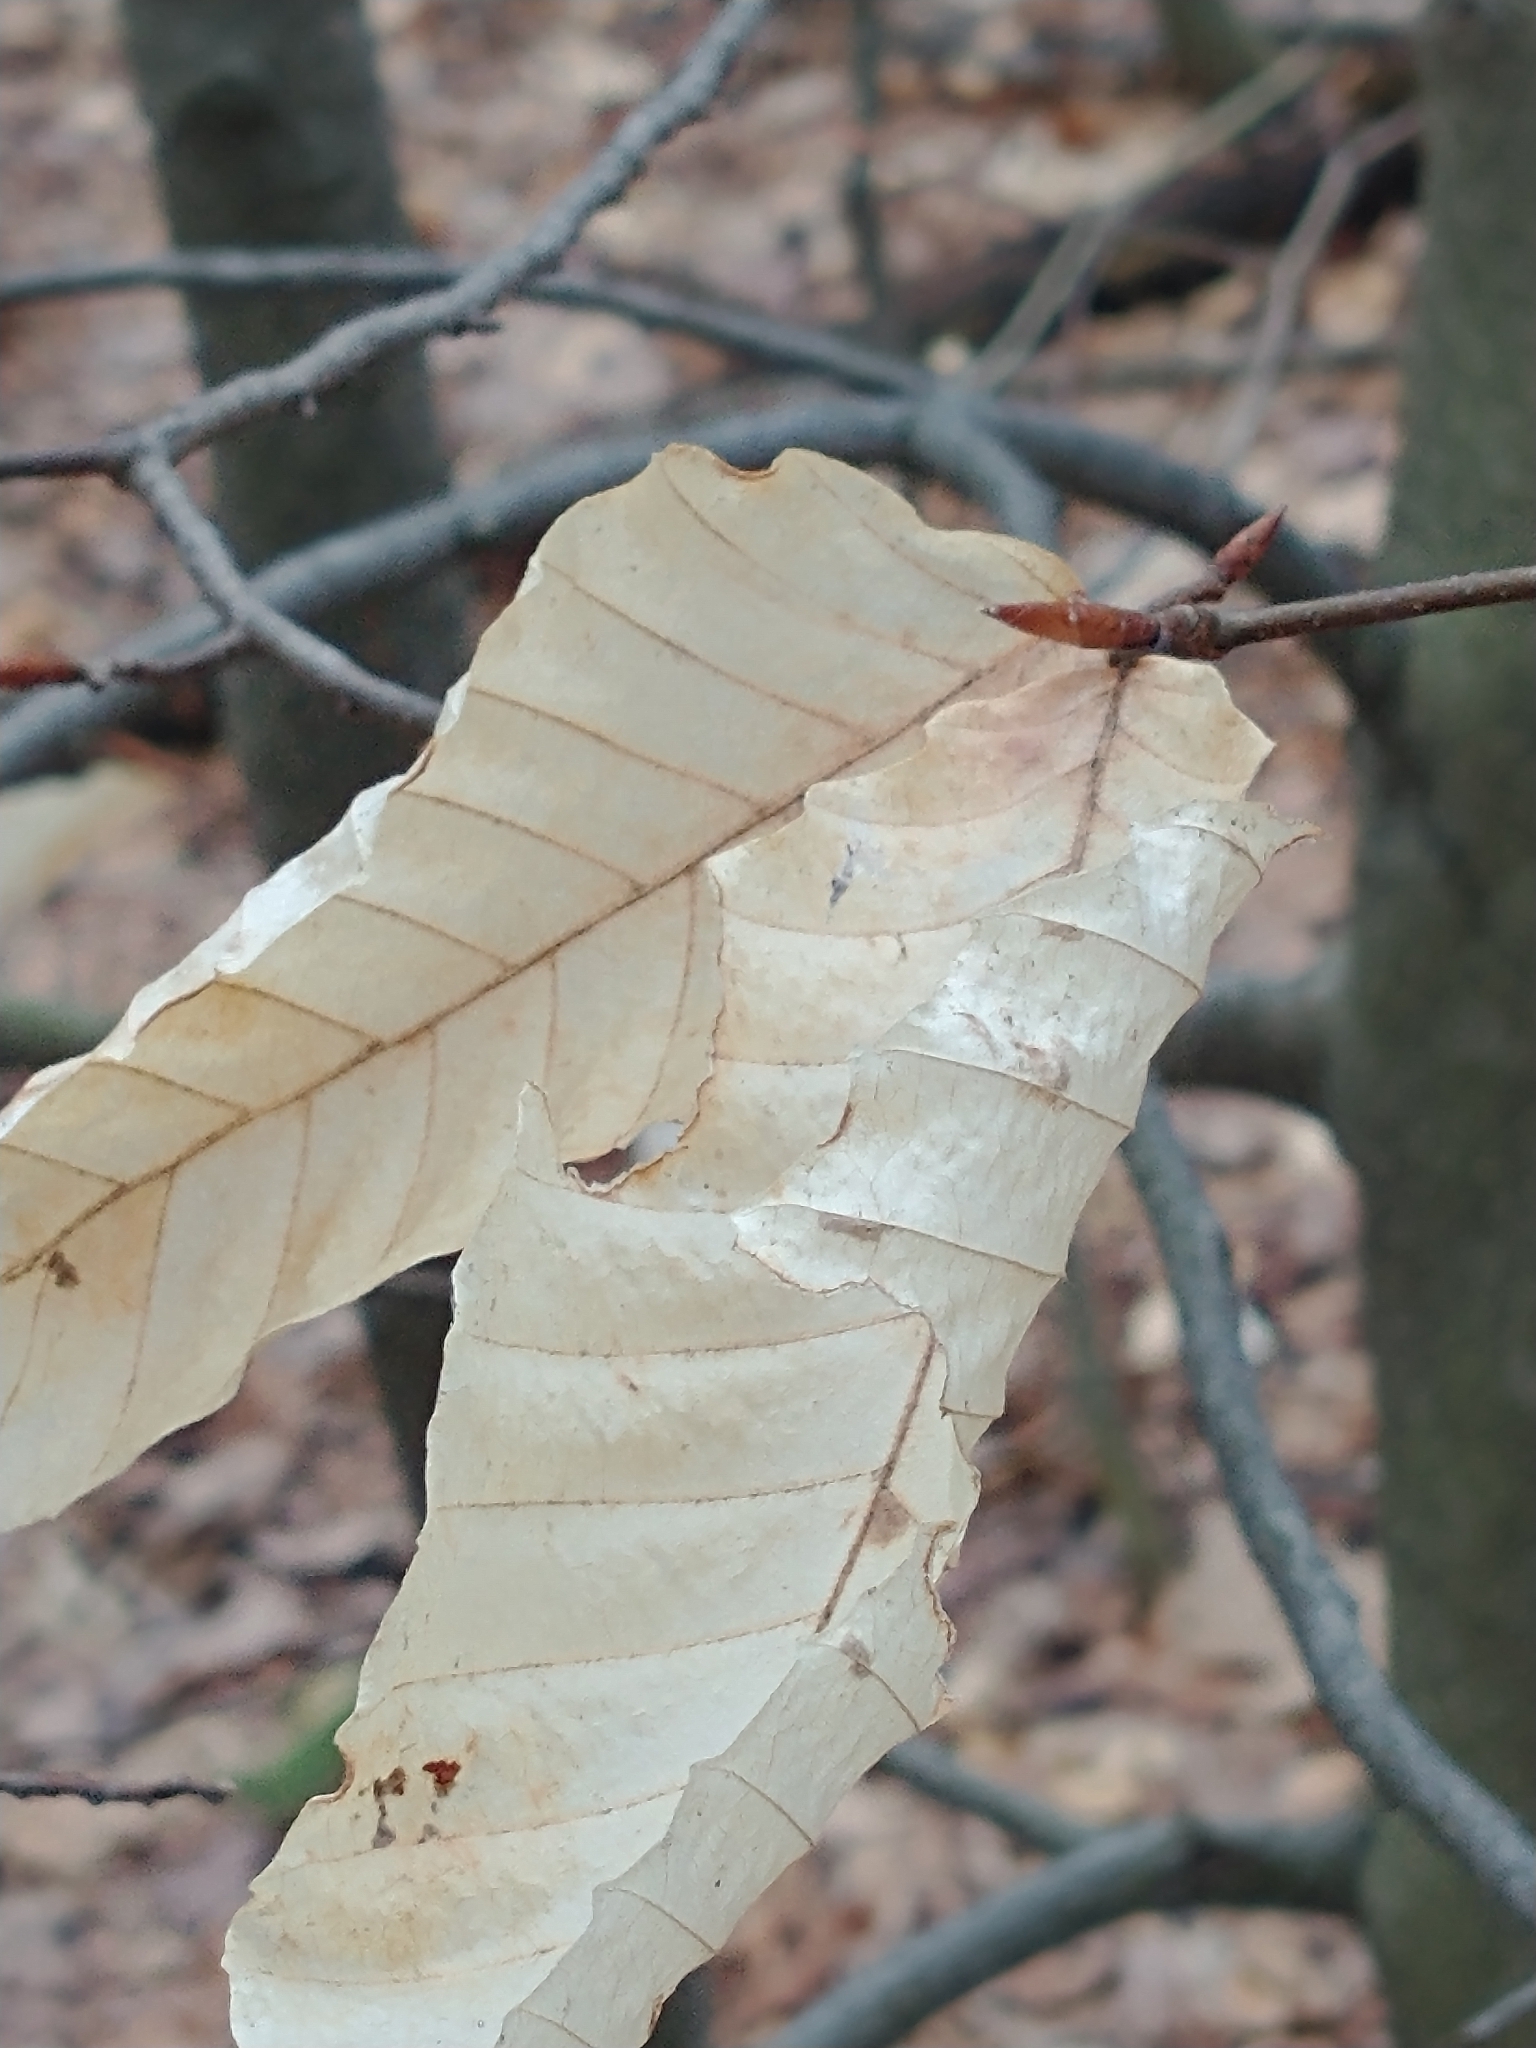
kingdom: Plantae
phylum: Tracheophyta
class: Magnoliopsida
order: Fagales
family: Fagaceae
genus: Fagus
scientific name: Fagus grandifolia
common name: American beech
